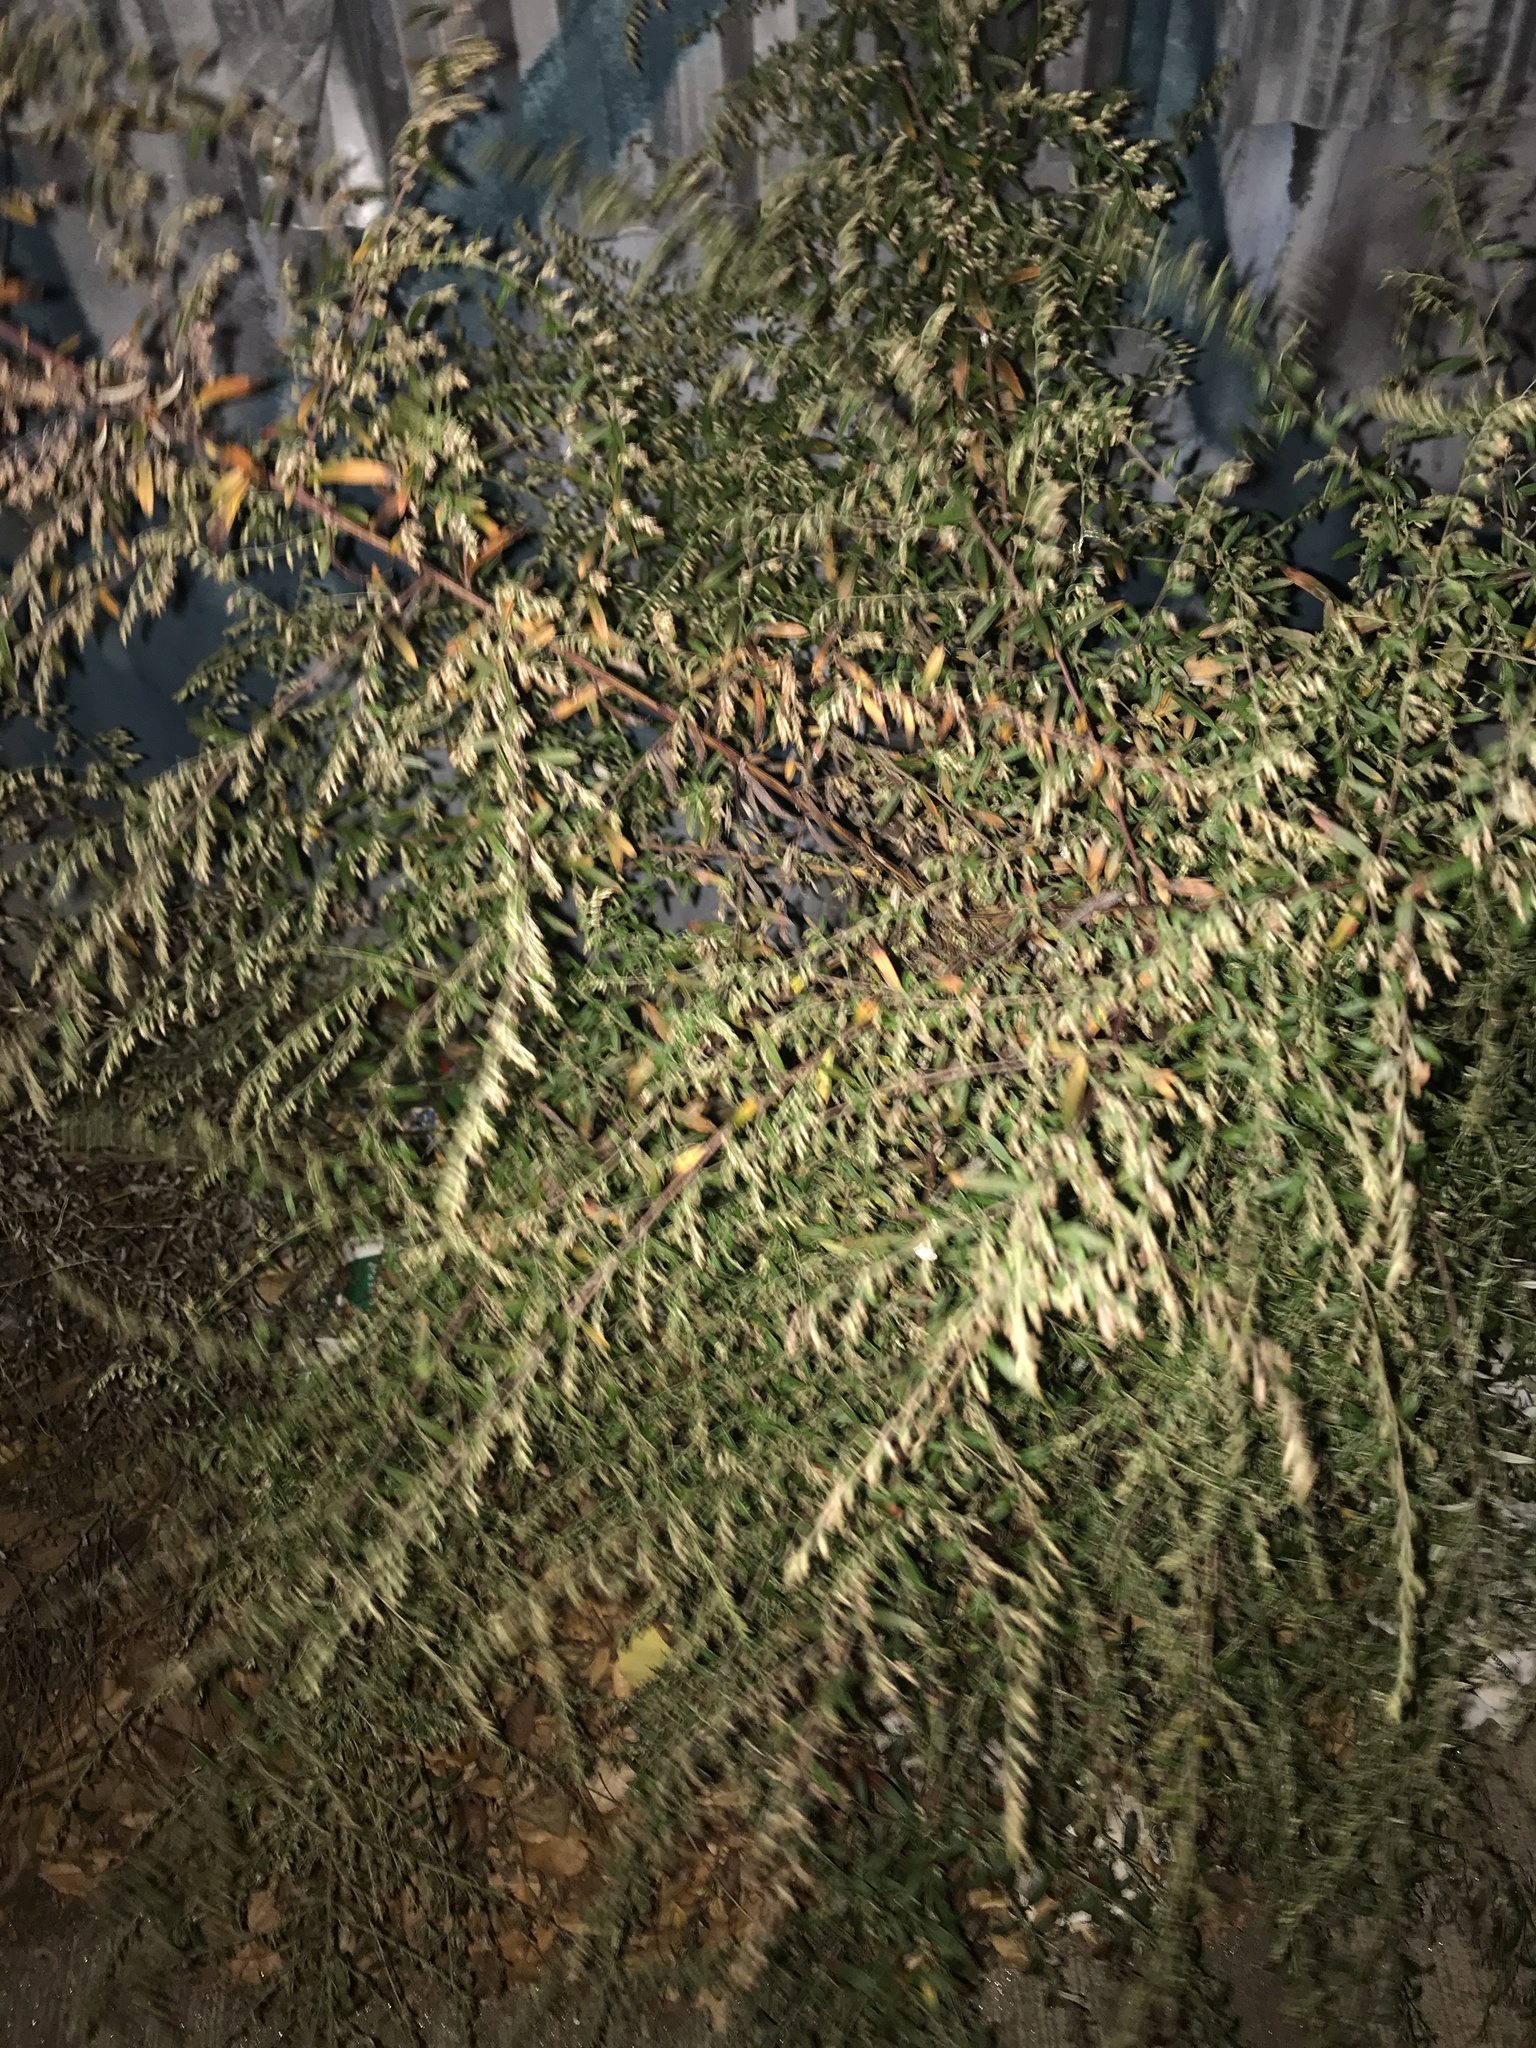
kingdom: Plantae
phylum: Tracheophyta
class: Magnoliopsida
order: Asterales
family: Asteraceae
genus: Artemisia
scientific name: Artemisia vulgaris
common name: Mugwort
